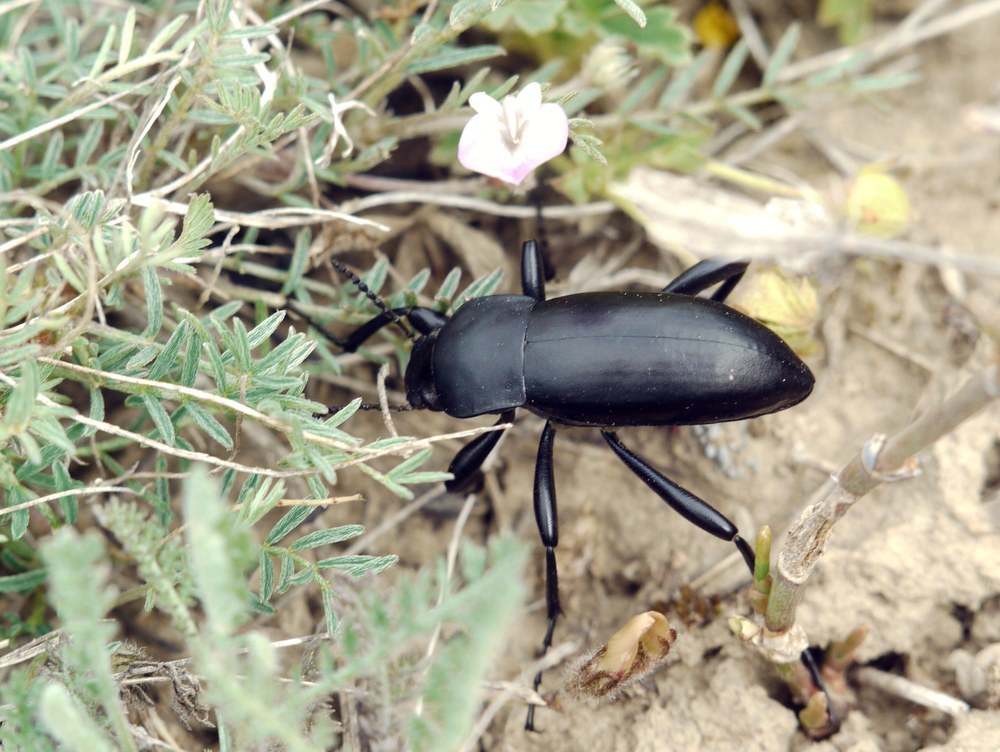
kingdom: Animalia
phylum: Arthropoda
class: Insecta
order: Coleoptera
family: Tenebrionidae
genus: Prosodes
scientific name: Prosodes obtusa
